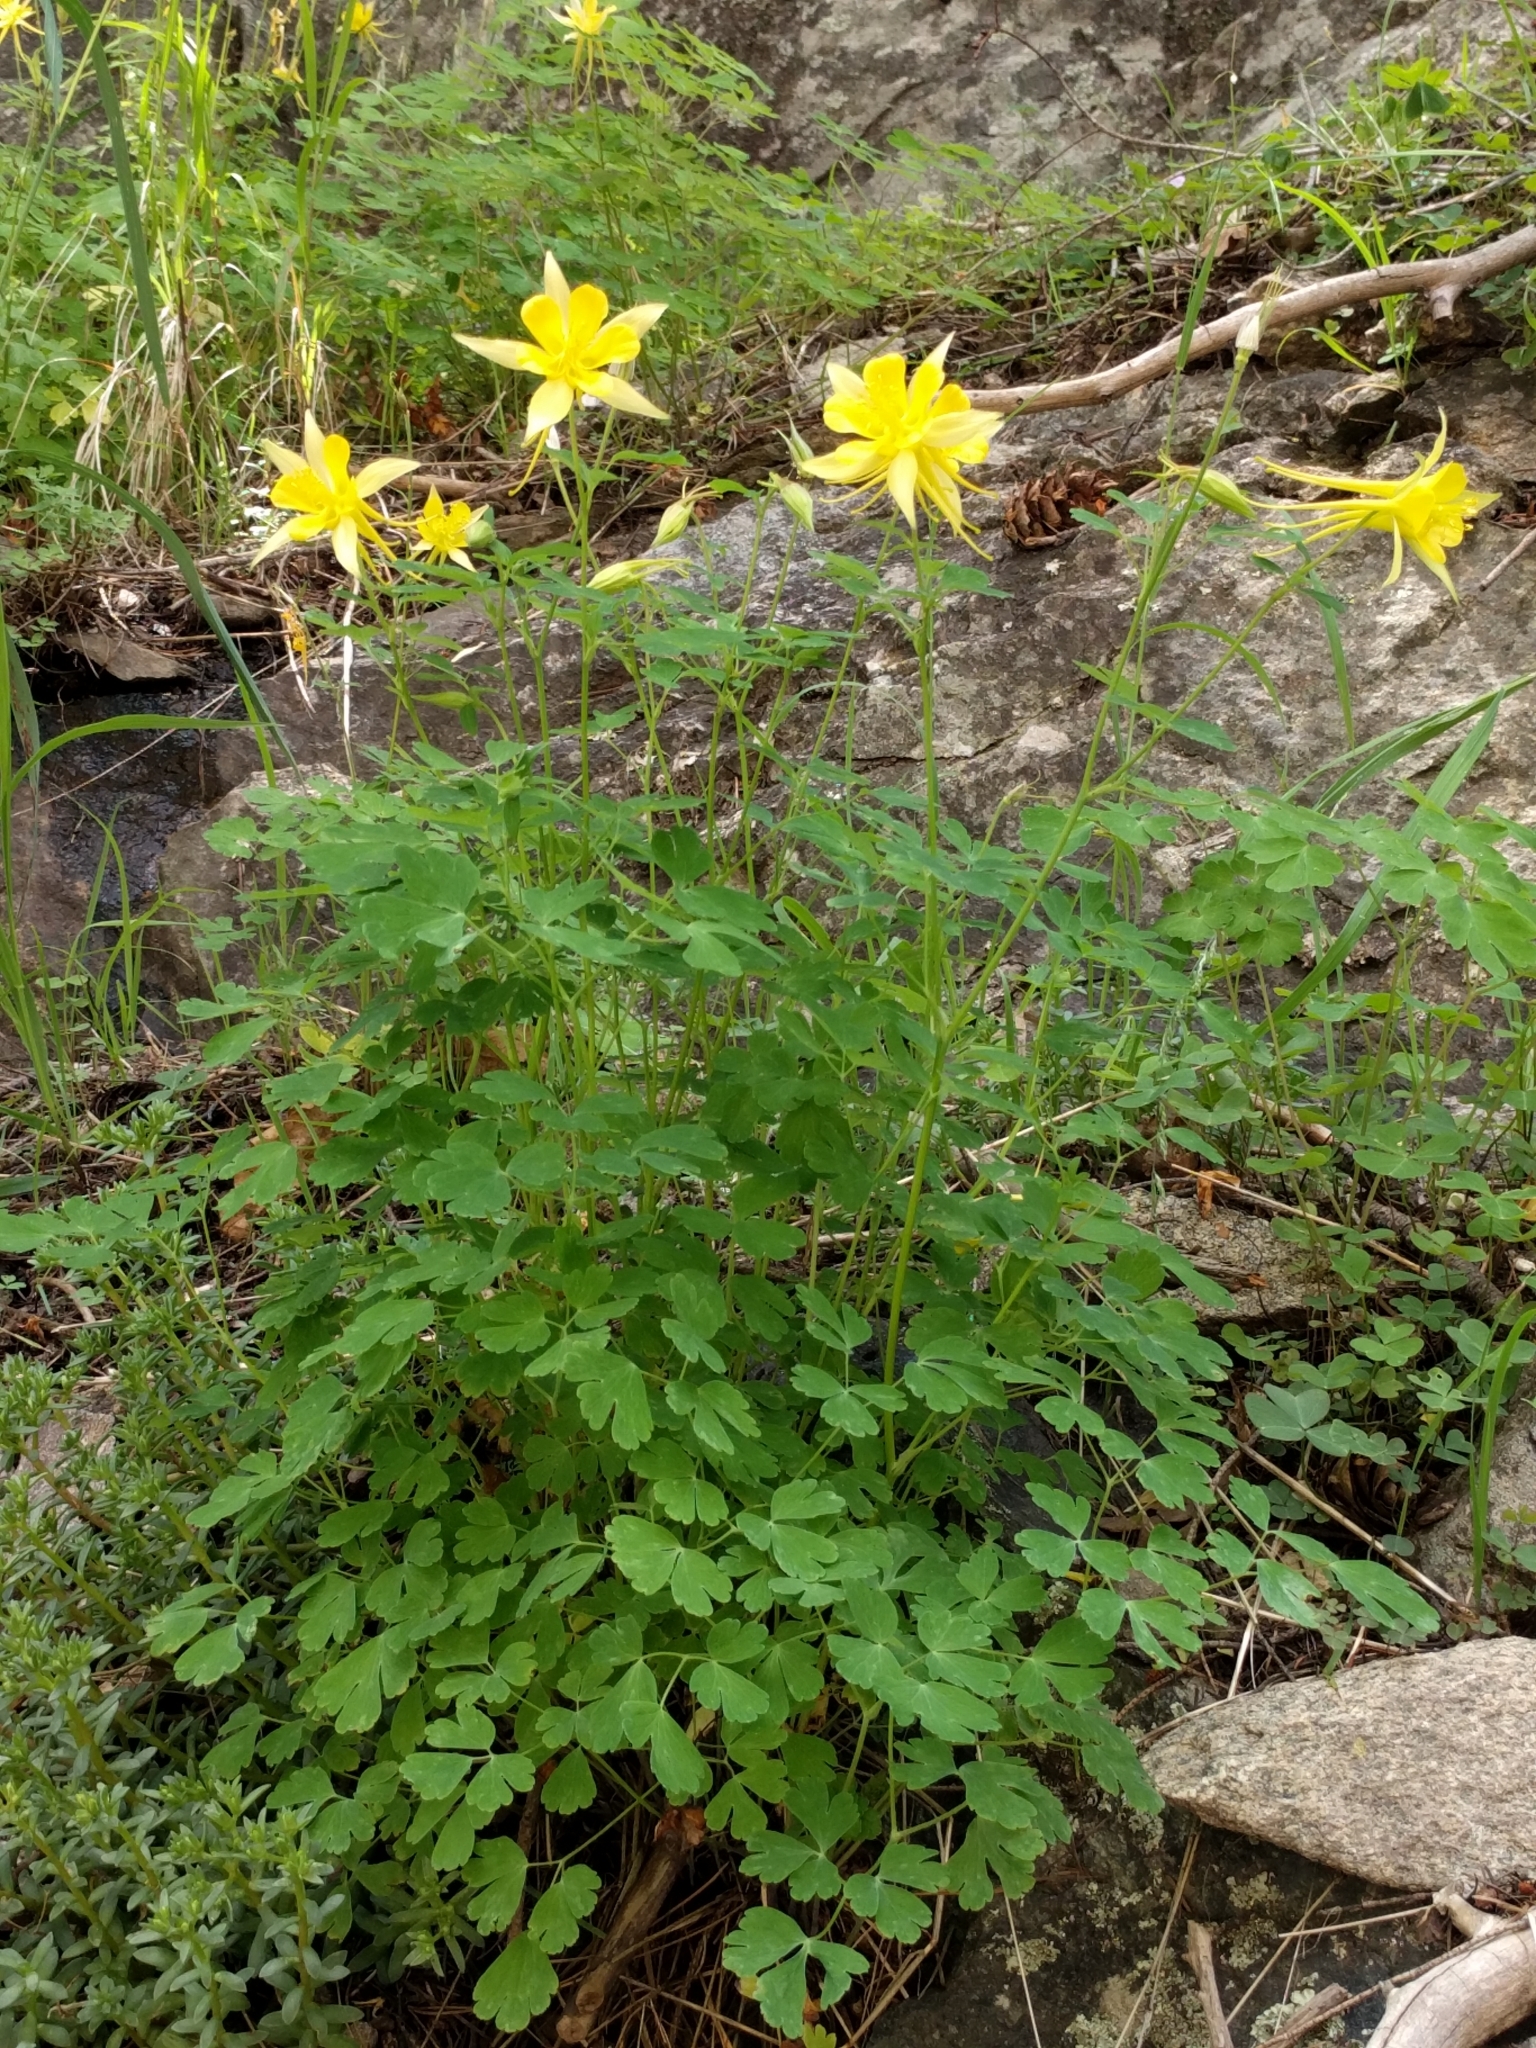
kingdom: Plantae
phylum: Tracheophyta
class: Magnoliopsida
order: Ranunculales
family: Ranunculaceae
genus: Aquilegia
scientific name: Aquilegia chrysantha
